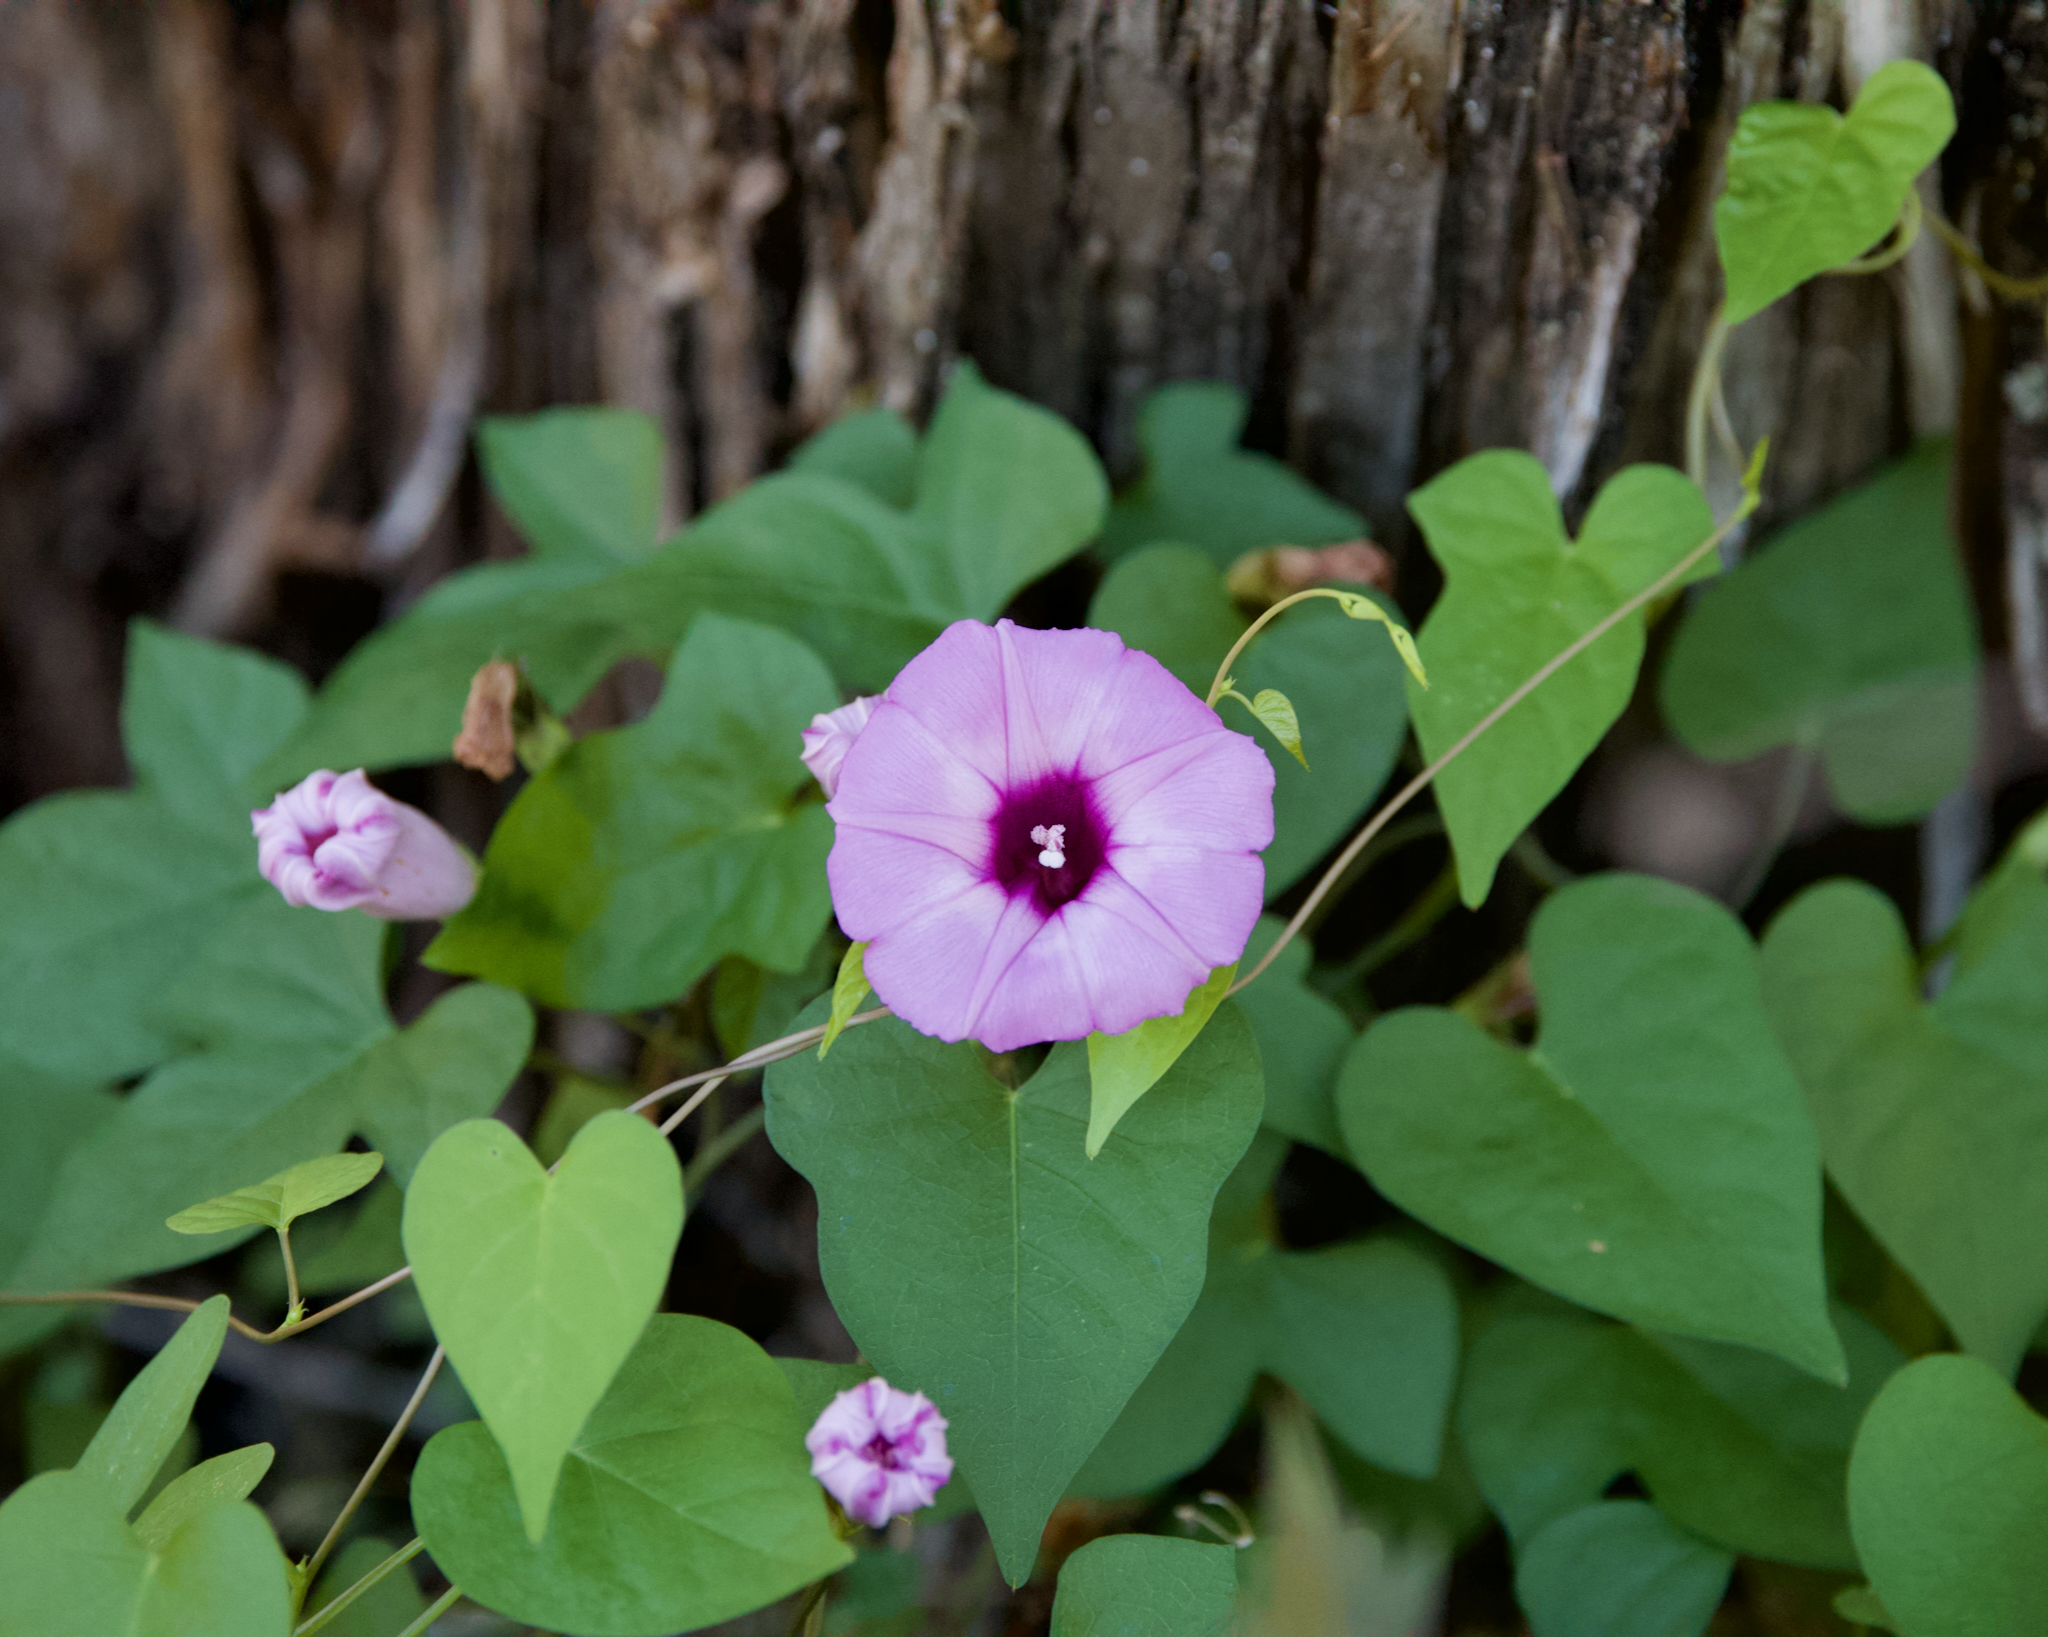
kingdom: Plantae
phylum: Tracheophyta
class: Magnoliopsida
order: Solanales
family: Convolvulaceae
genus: Ipomoea
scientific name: Ipomoea cordatotriloba
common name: Cotton morning glory
